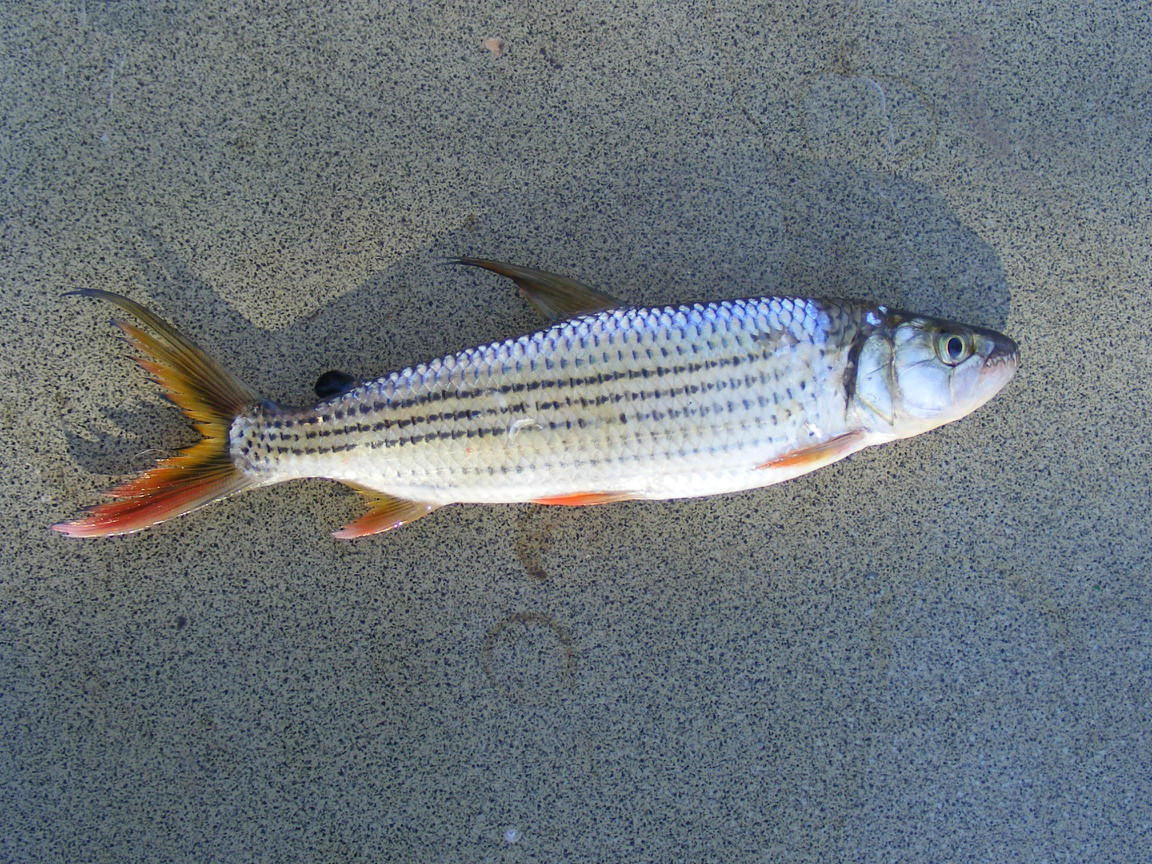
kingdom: Animalia
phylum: Chordata
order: Characiformes
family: Alestidae
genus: Hydrocynus
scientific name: Hydrocynus vittatus
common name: Tigerfish
